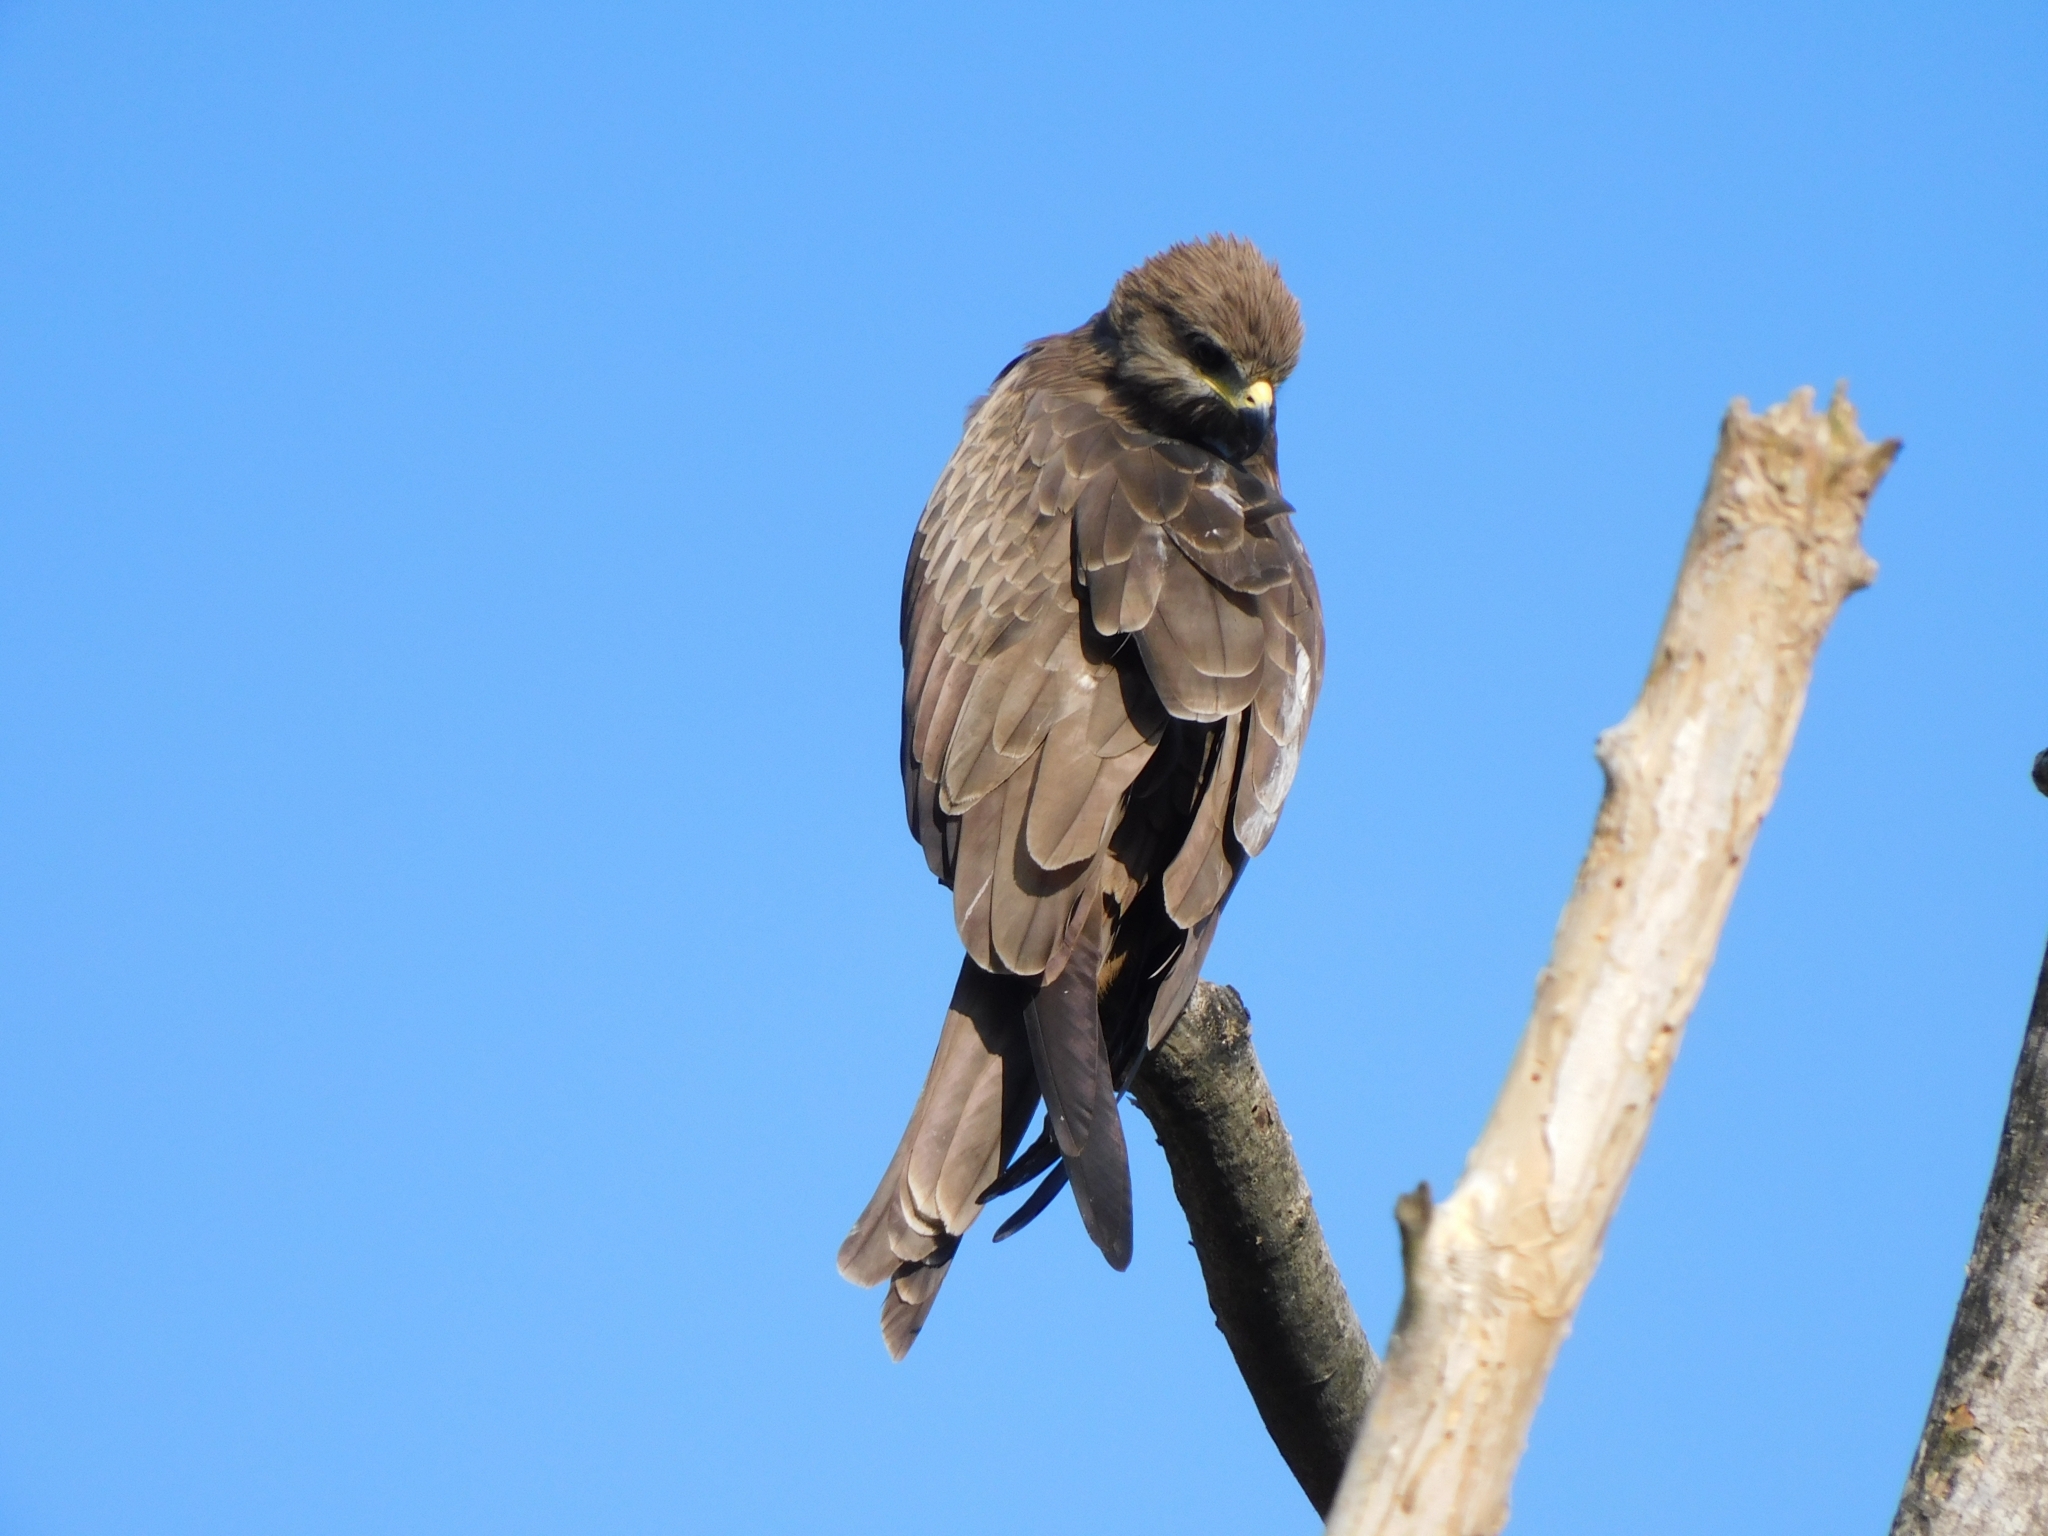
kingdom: Animalia
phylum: Chordata
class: Aves
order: Accipitriformes
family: Accipitridae
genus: Milvus
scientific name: Milvus migrans
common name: Black kite
